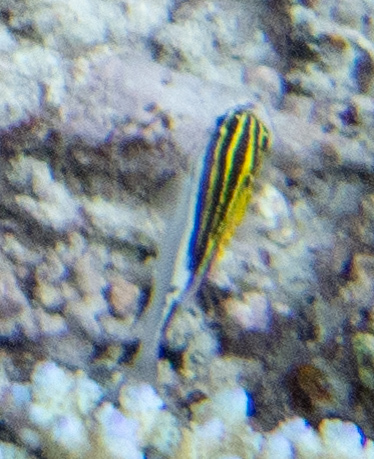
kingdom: Animalia
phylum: Chordata
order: Perciformes
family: Nemipteridae
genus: Scolopsis
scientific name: Scolopsis bilineata
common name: Two-lined monocle bream
